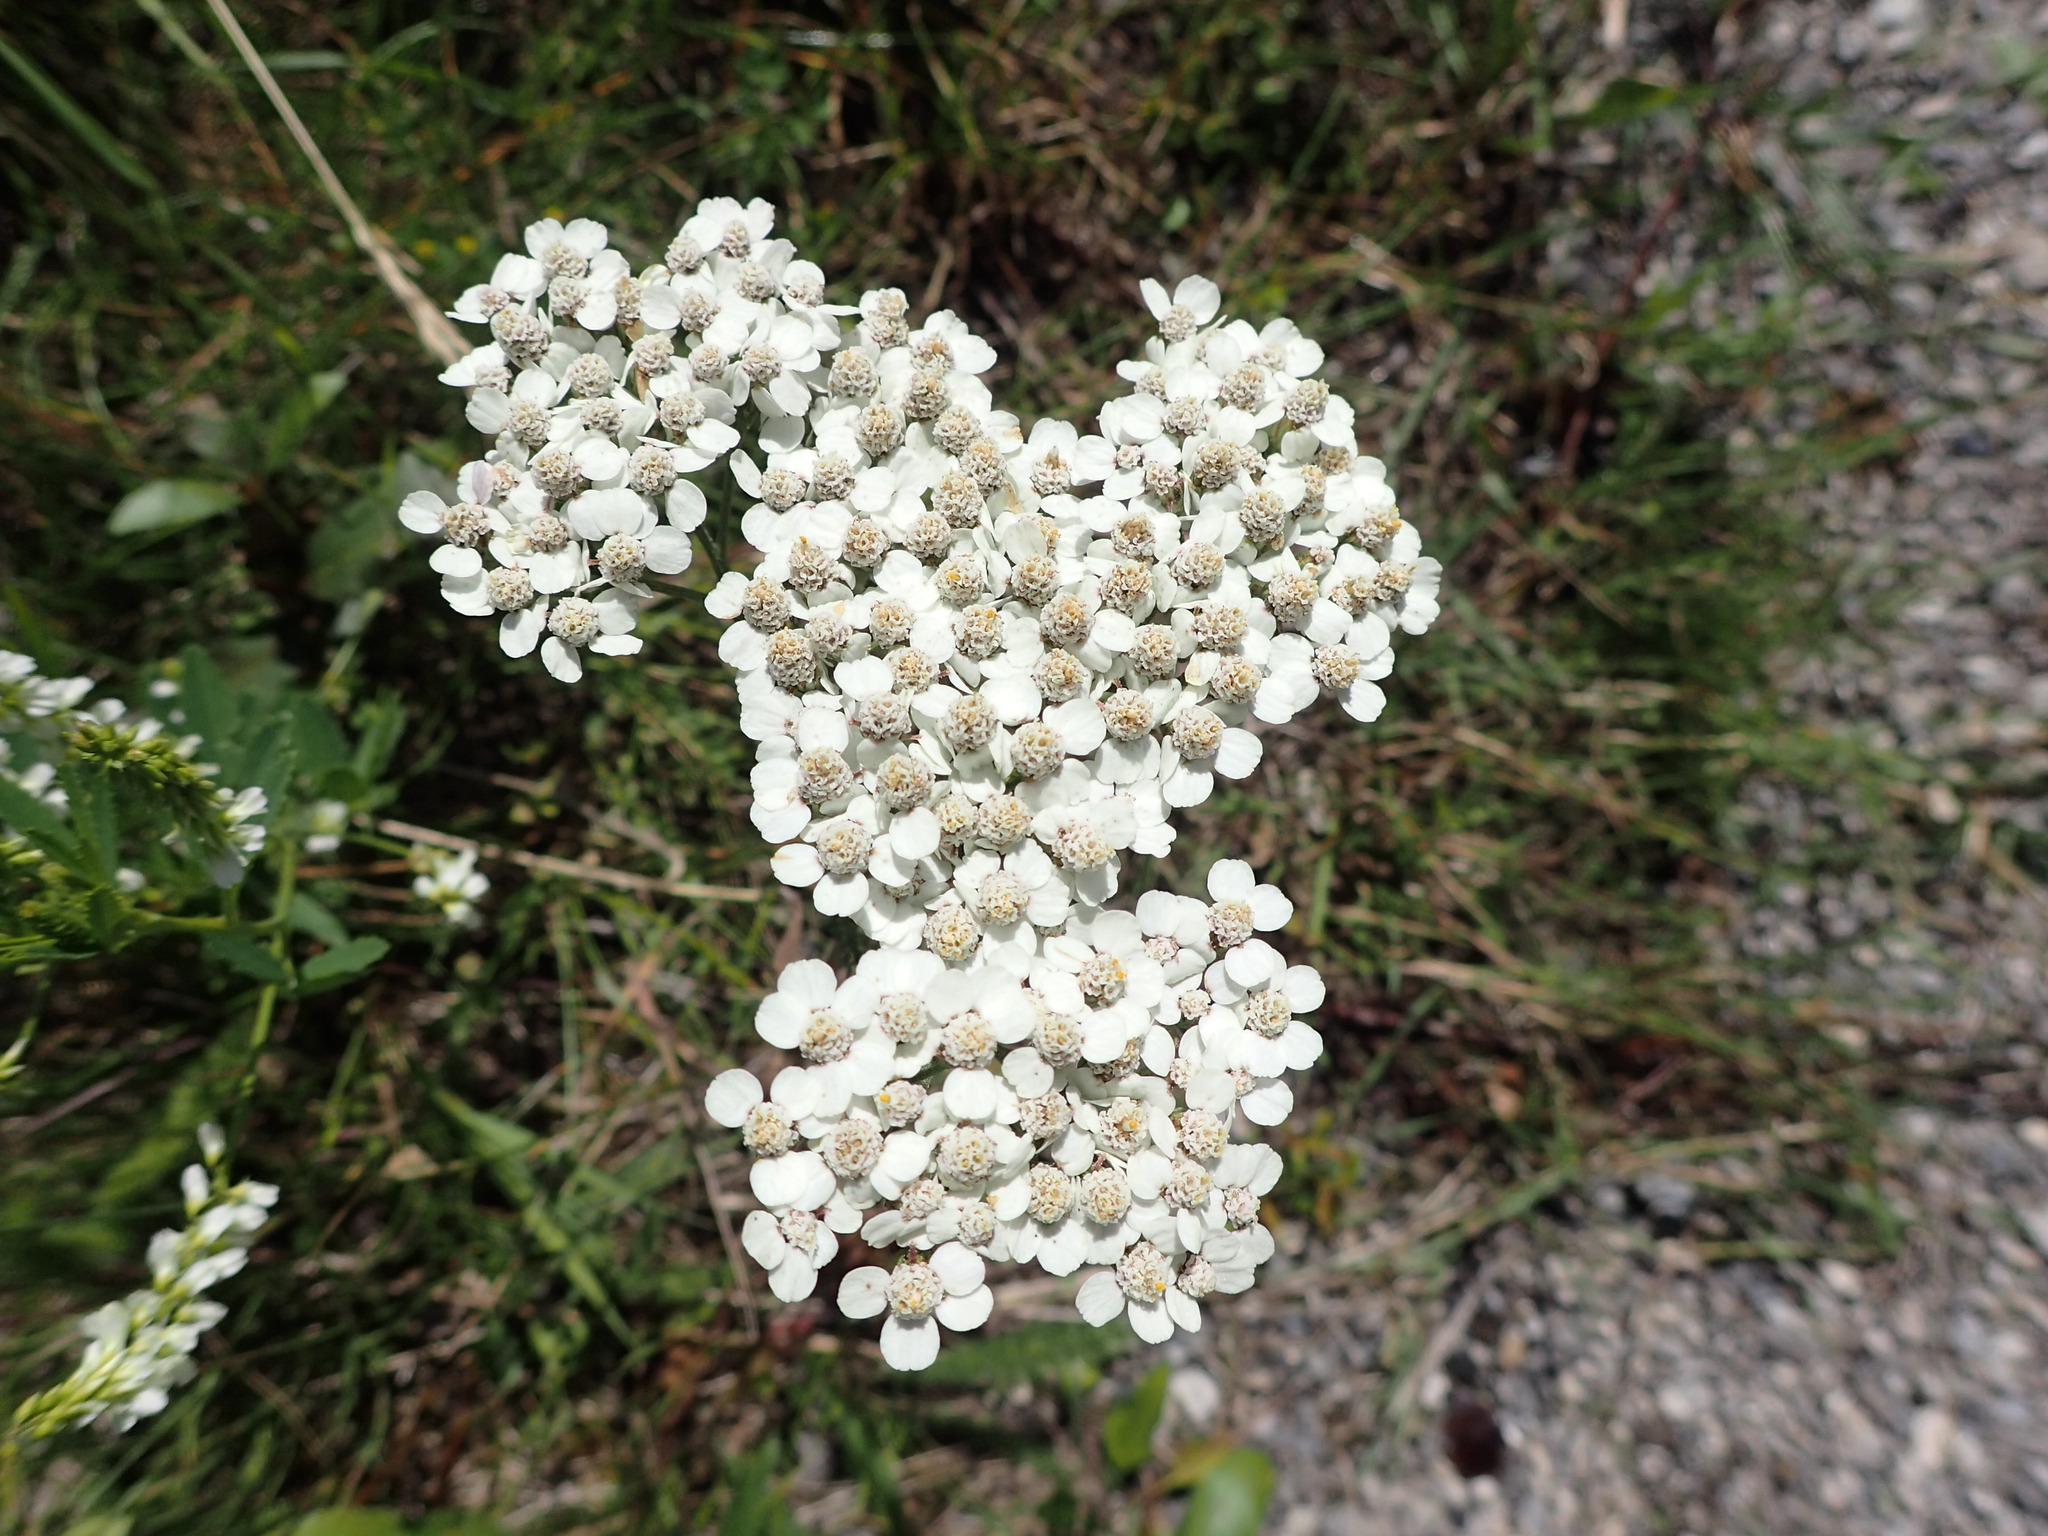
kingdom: Plantae
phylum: Tracheophyta
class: Magnoliopsida
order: Asterales
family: Asteraceae
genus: Achillea
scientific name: Achillea millefolium
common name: Yarrow
